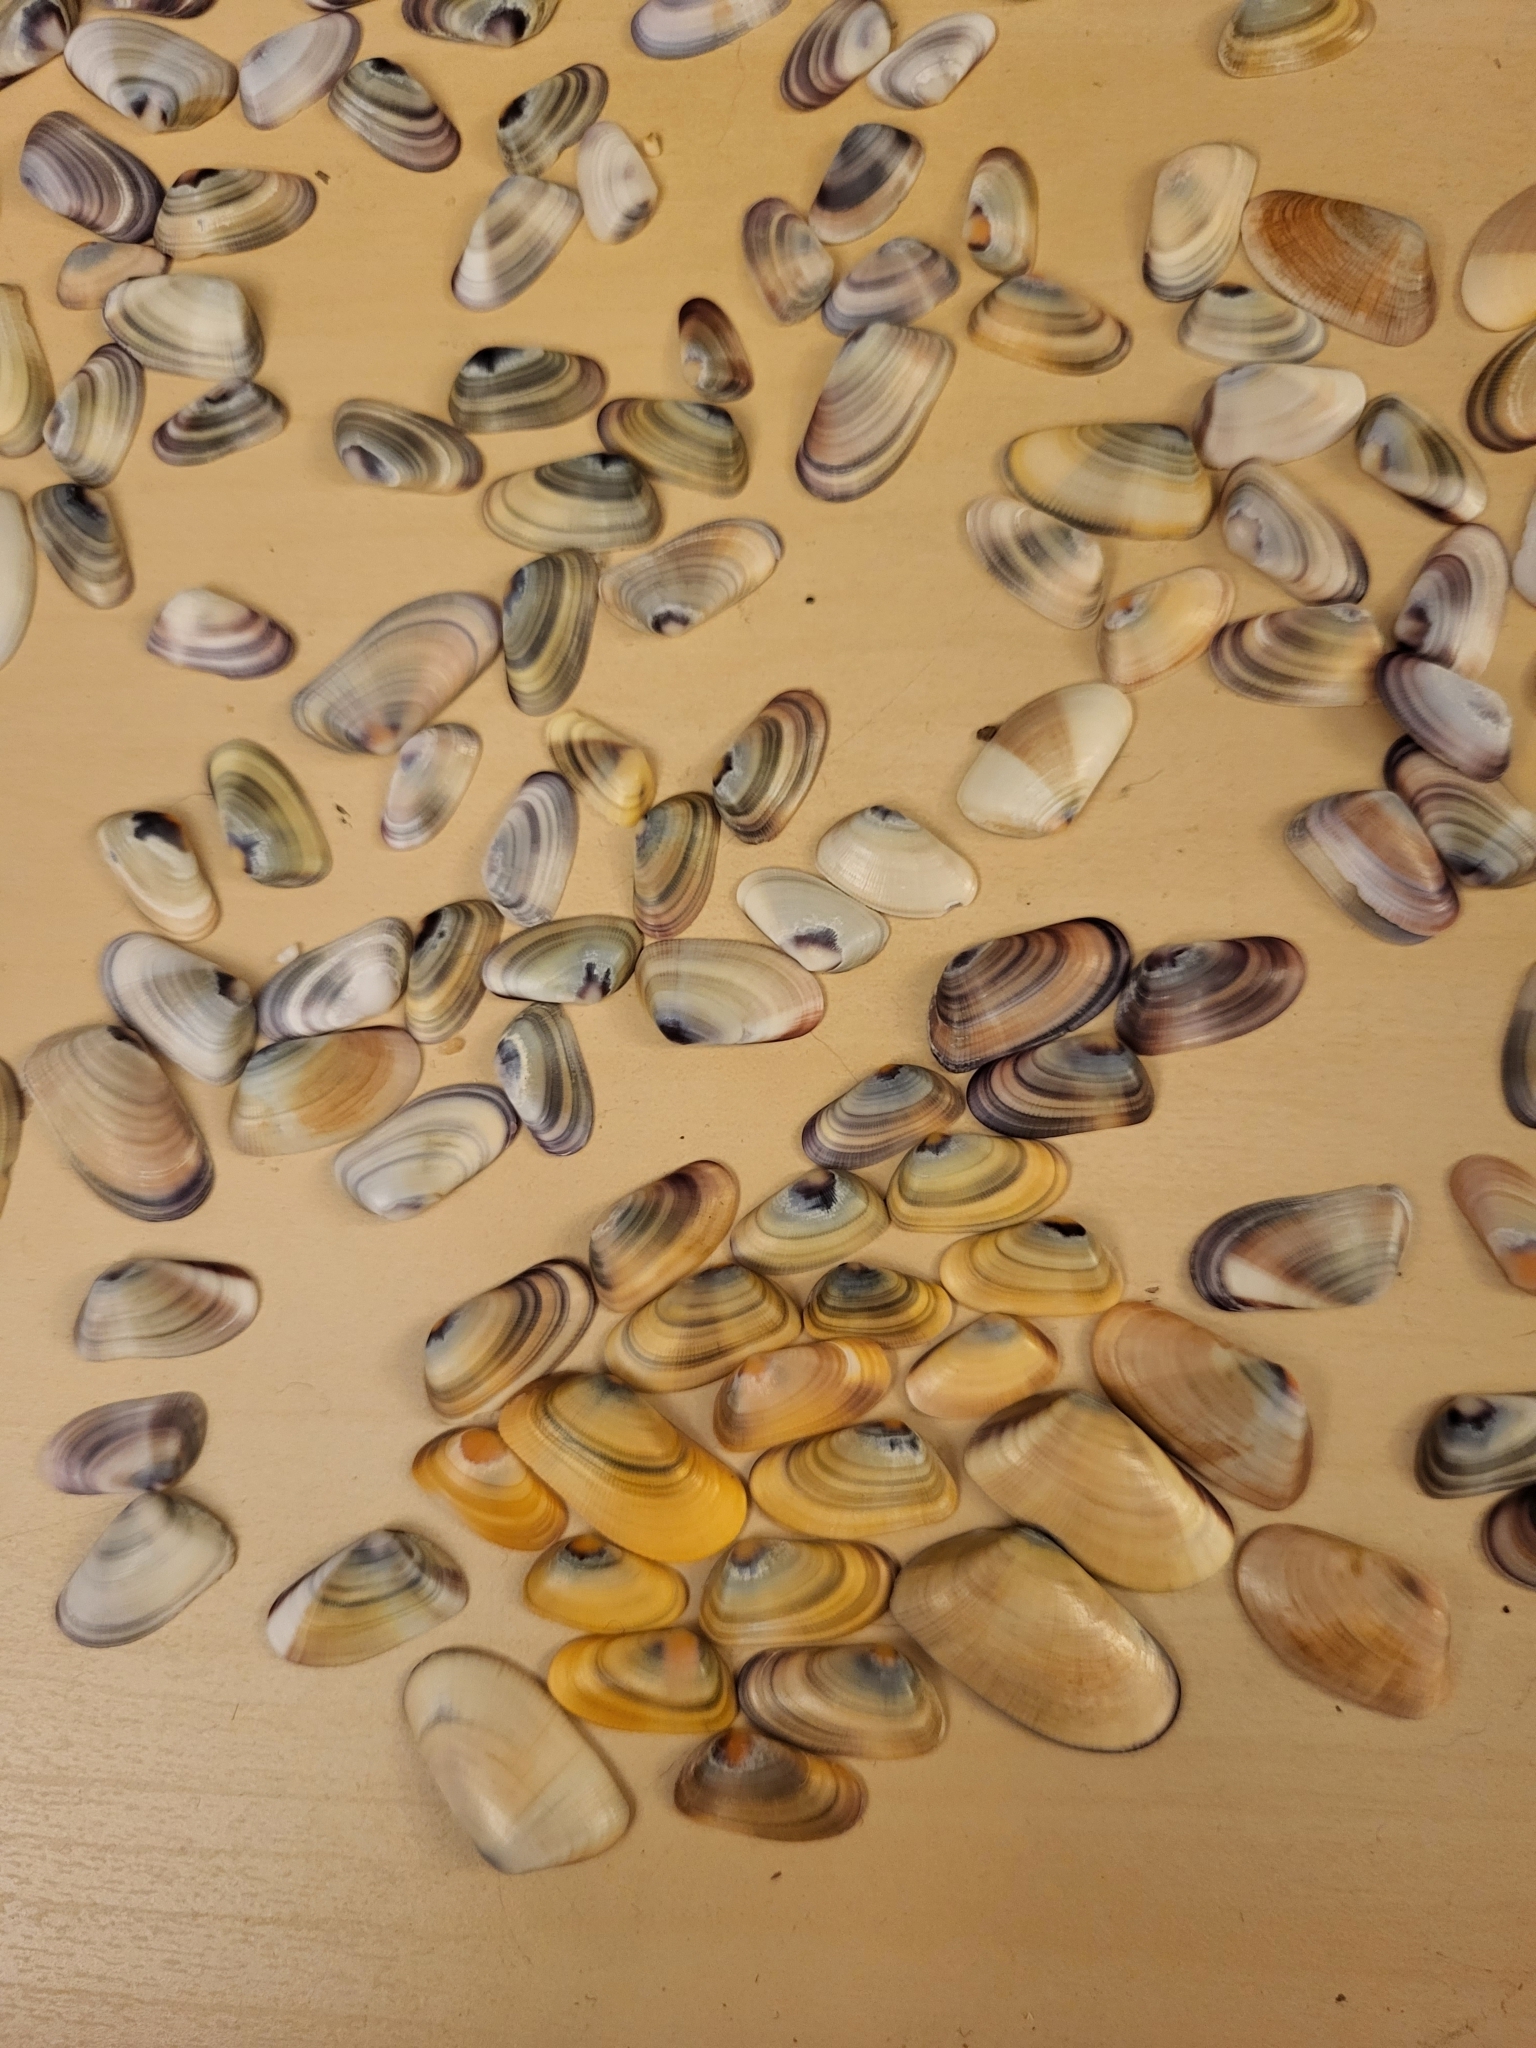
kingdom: Animalia
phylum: Mollusca
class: Bivalvia
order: Cardiida
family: Donacidae
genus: Donax
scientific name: Donax gouldii
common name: Gould beanclam
